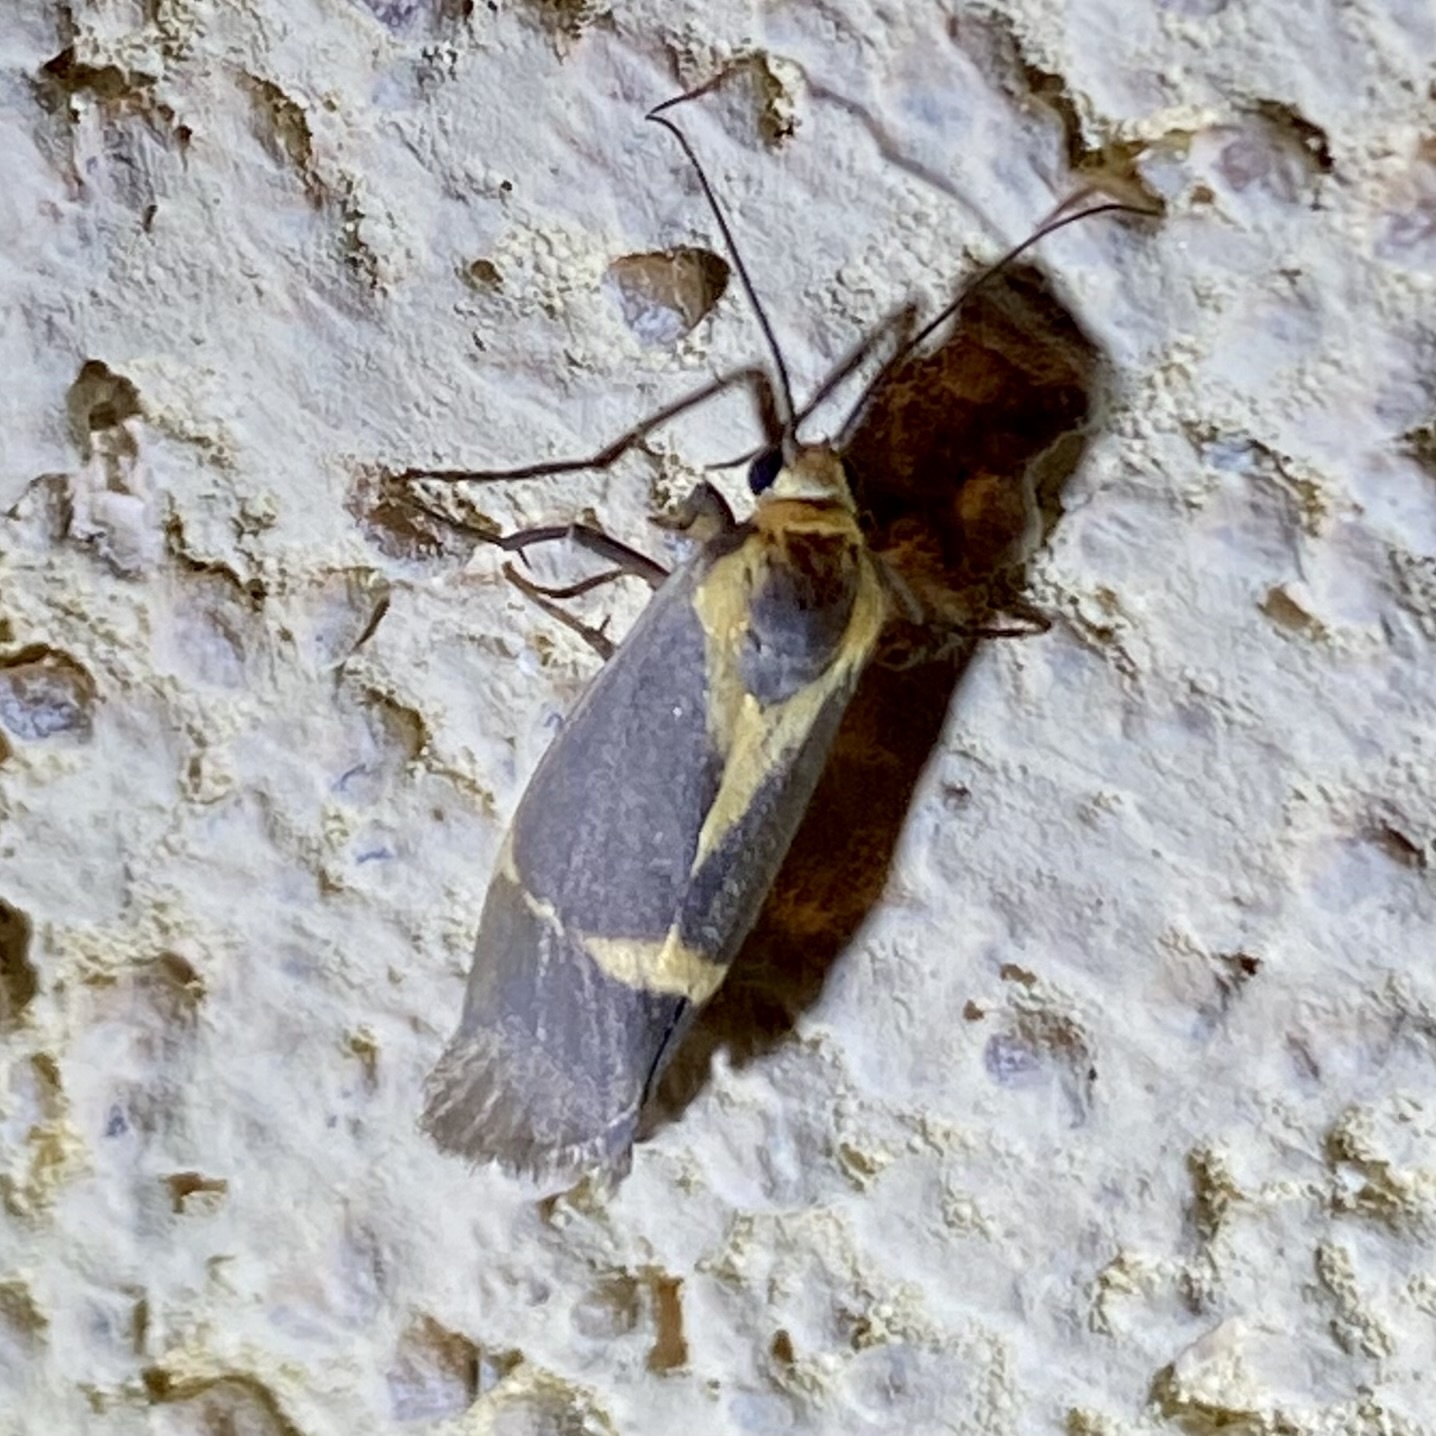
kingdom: Animalia
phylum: Arthropoda
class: Insecta
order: Lepidoptera
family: Erebidae
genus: Cisthene
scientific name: Cisthene tenuifascia
